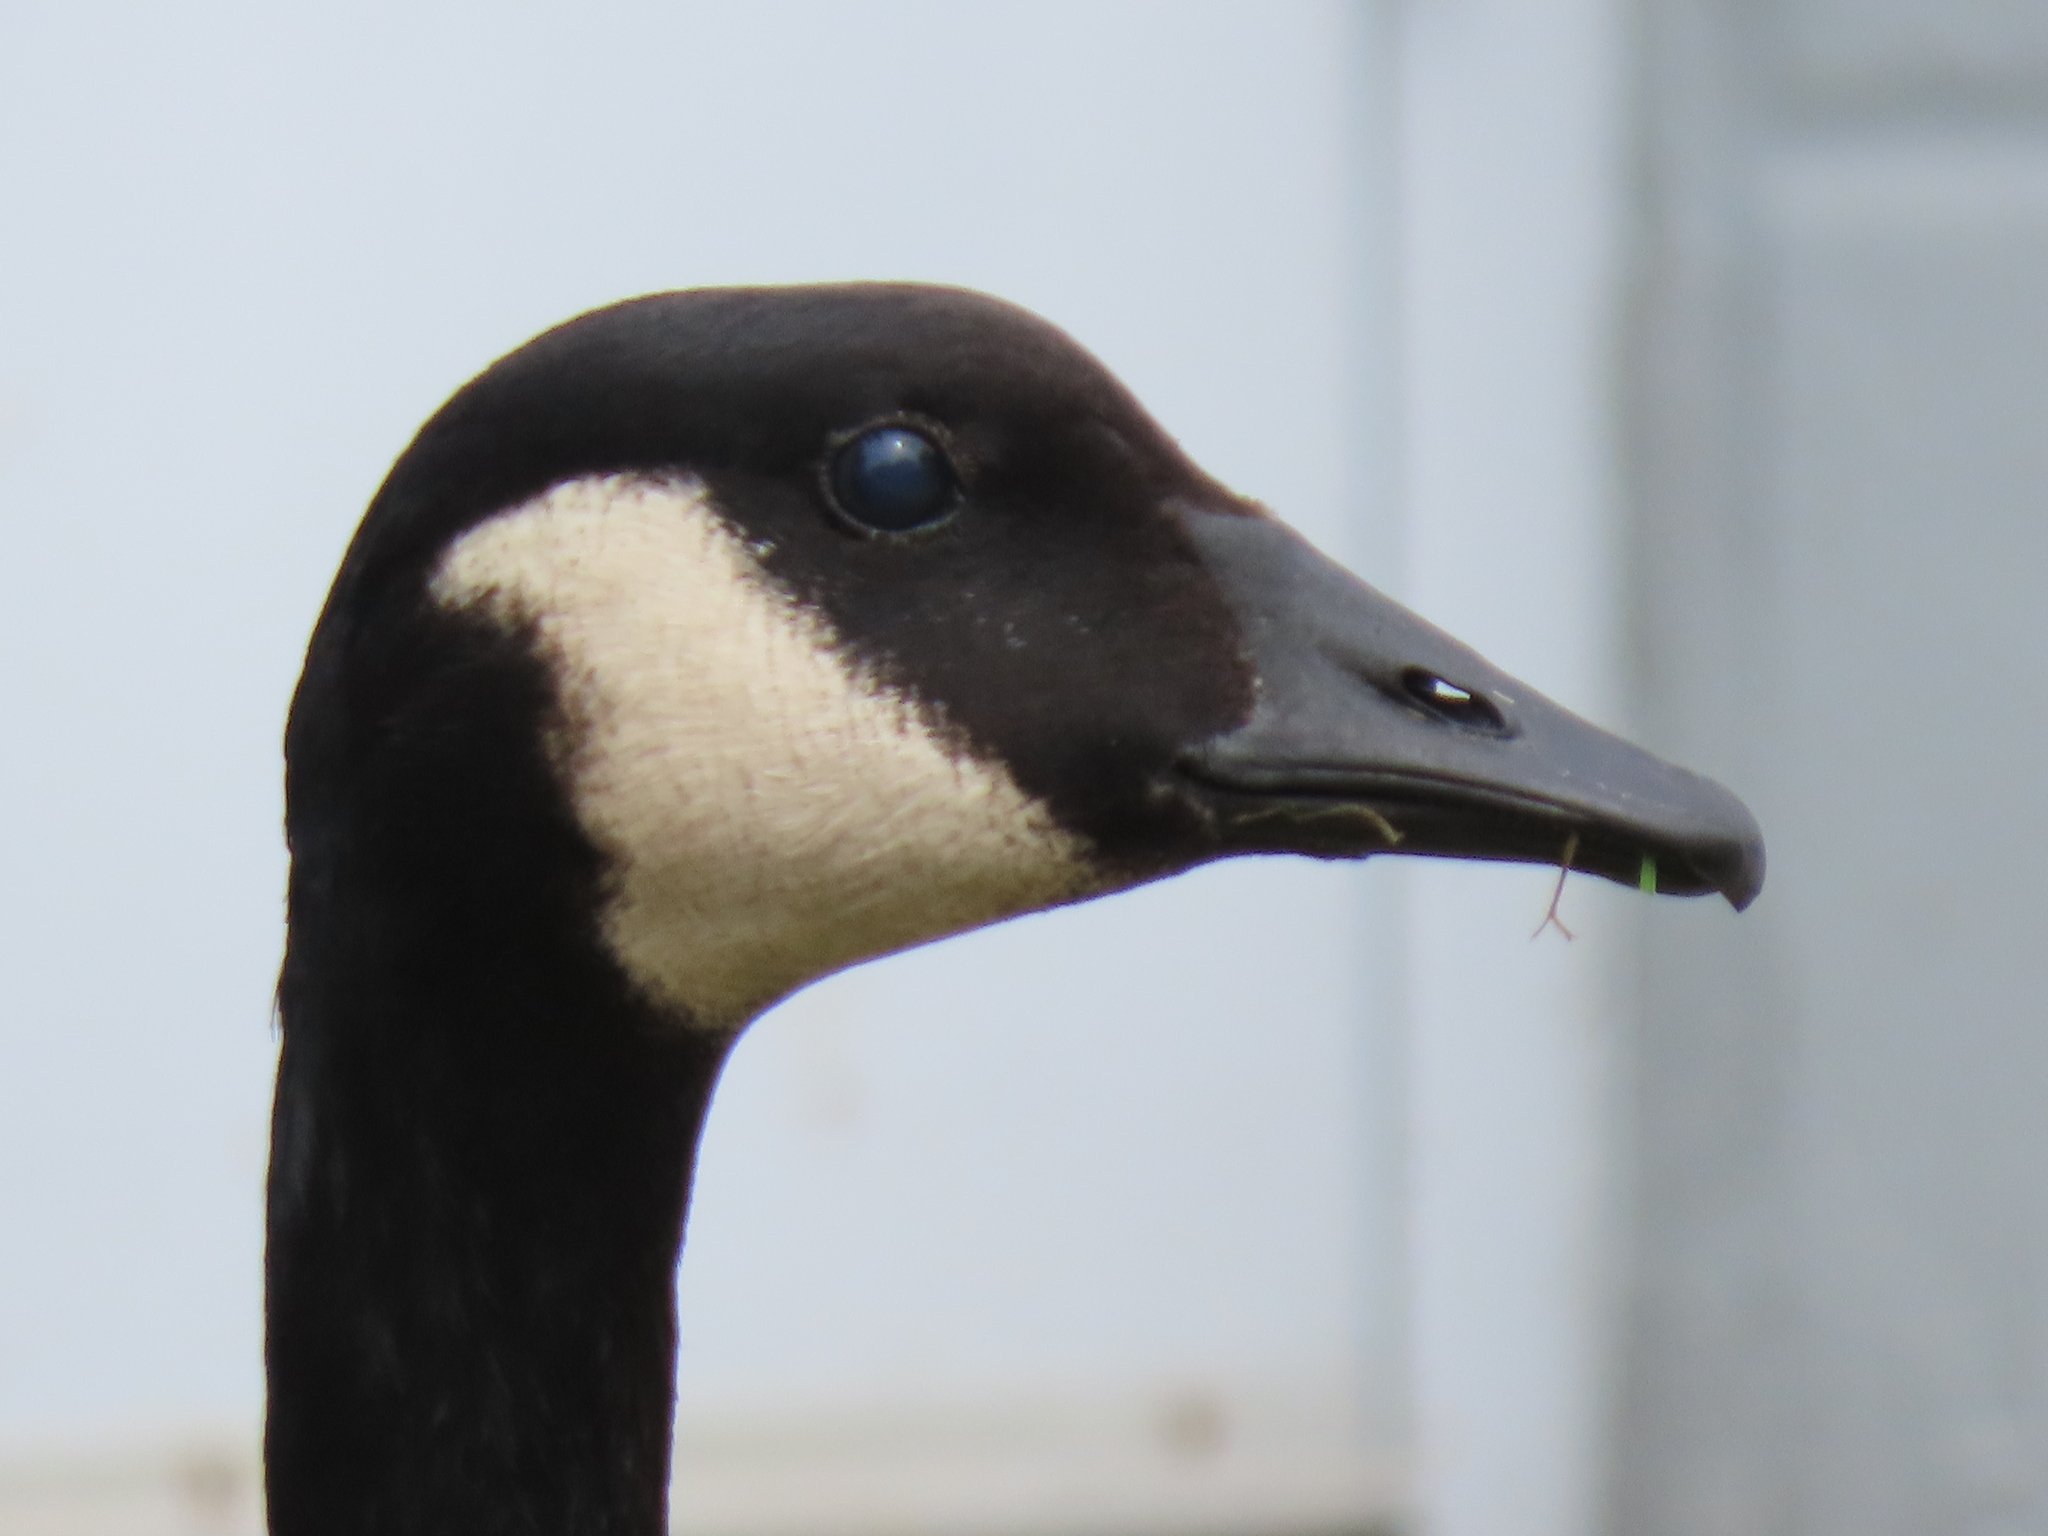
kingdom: Animalia
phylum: Chordata
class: Aves
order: Anseriformes
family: Anatidae
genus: Branta
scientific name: Branta canadensis
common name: Canada goose
